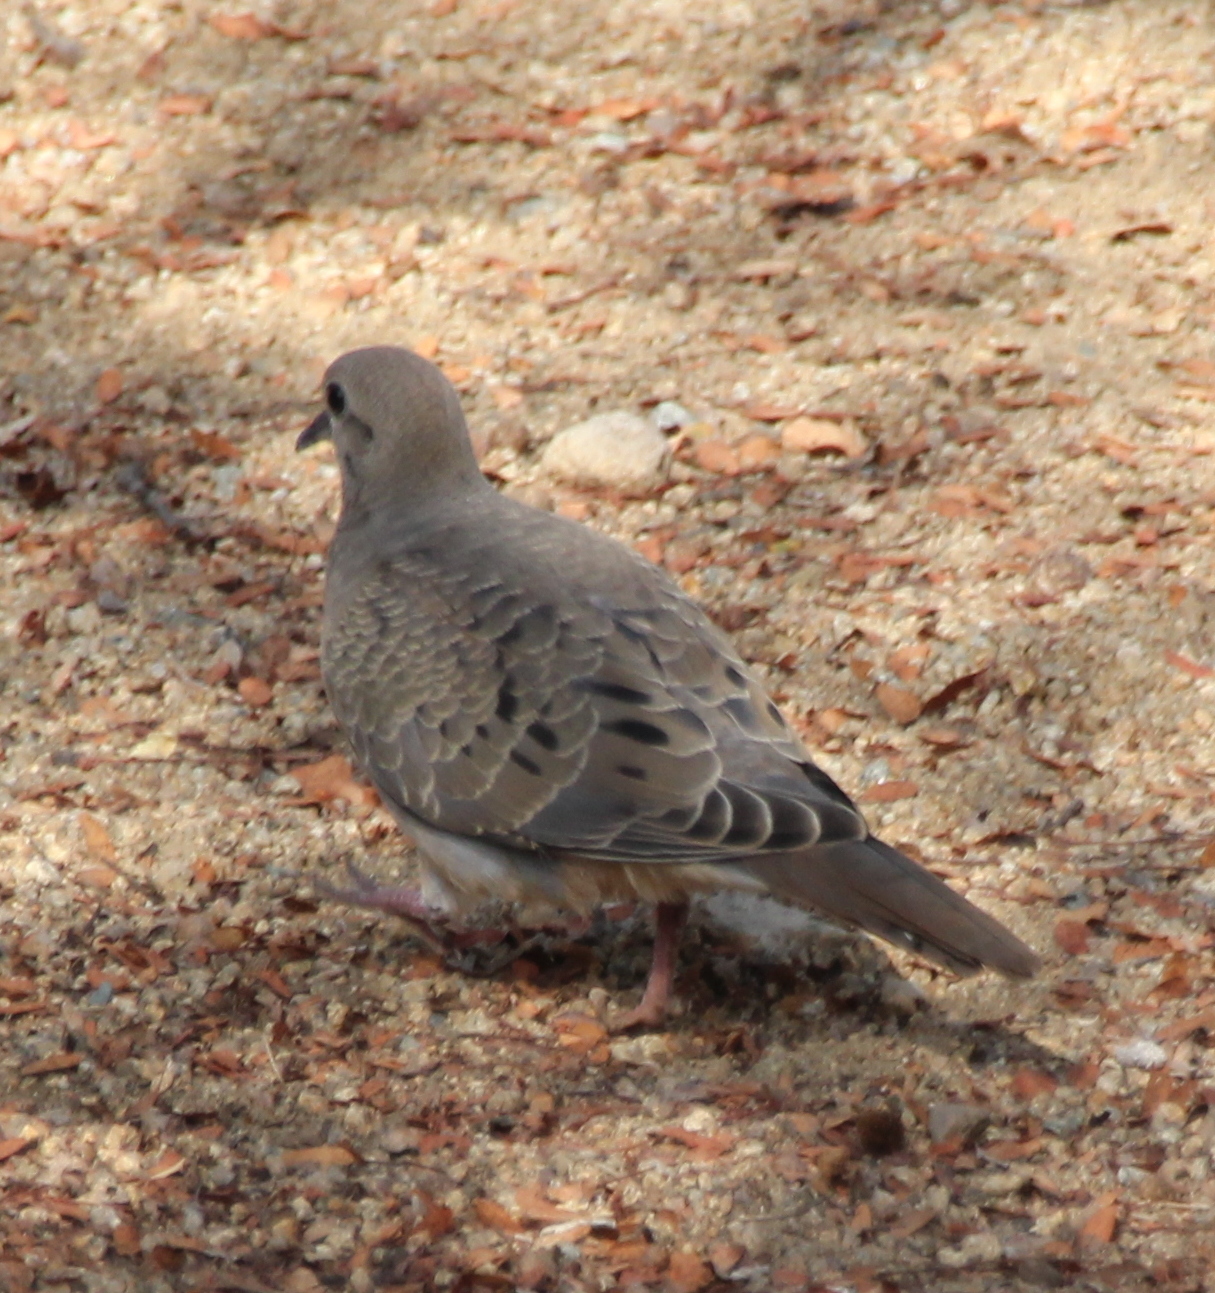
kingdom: Animalia
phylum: Chordata
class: Aves
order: Columbiformes
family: Columbidae
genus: Zenaida
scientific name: Zenaida macroura
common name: Mourning dove
